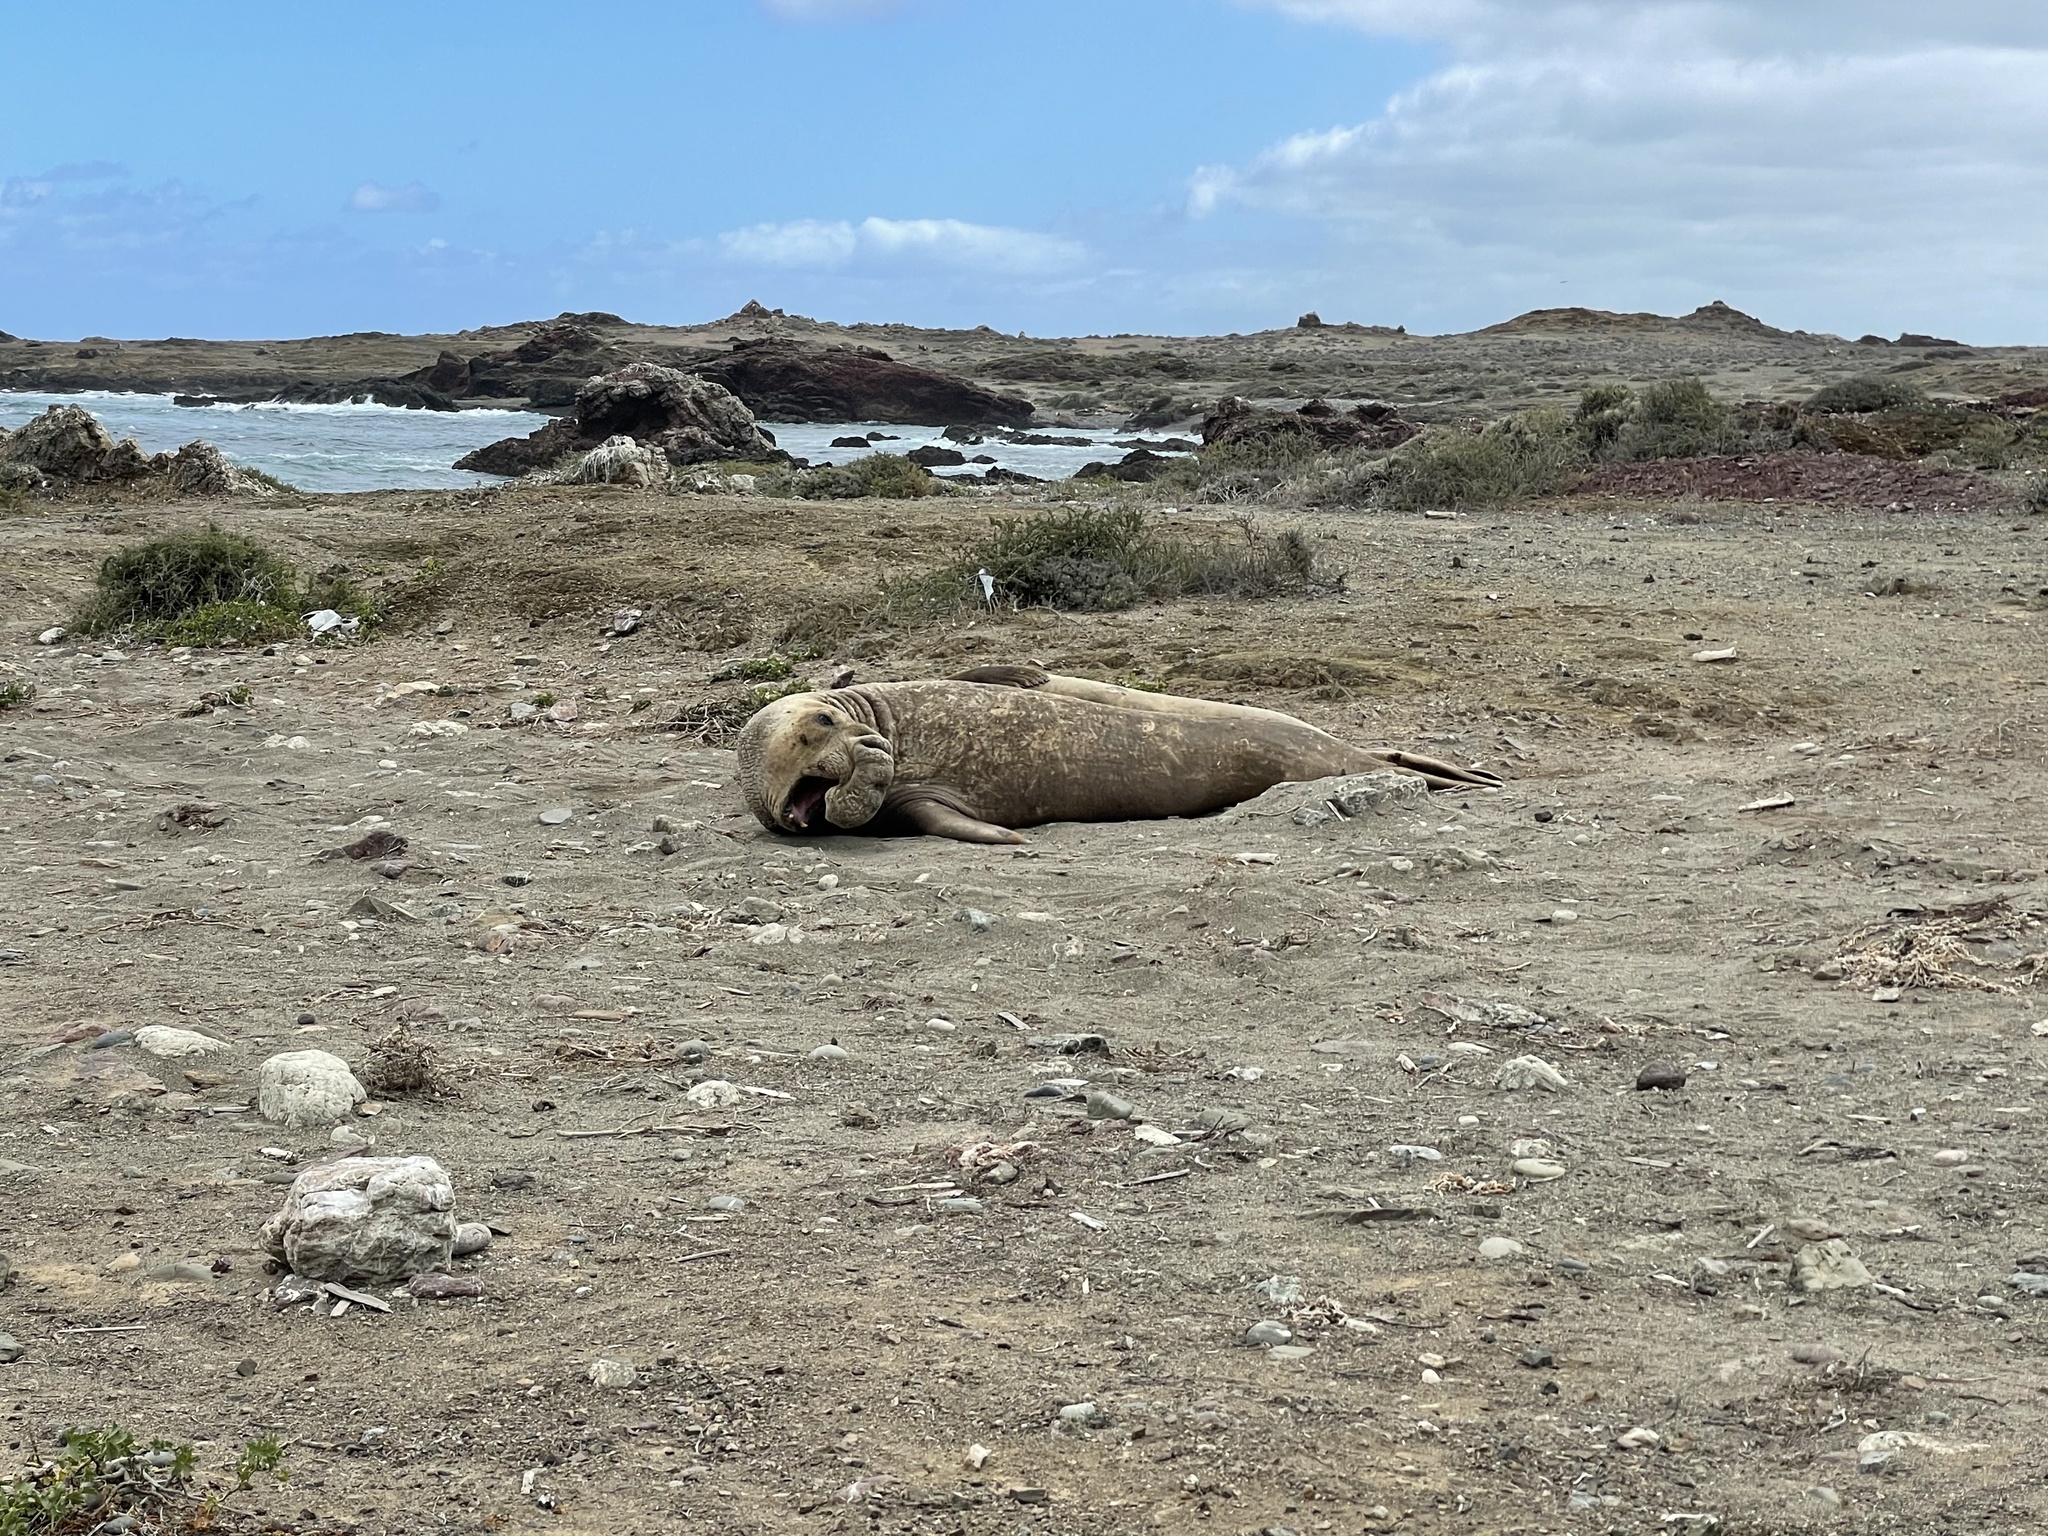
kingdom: Animalia
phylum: Chordata
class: Mammalia
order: Carnivora
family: Phocidae
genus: Mirounga
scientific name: Mirounga angustirostris
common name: Northern elephant seal
